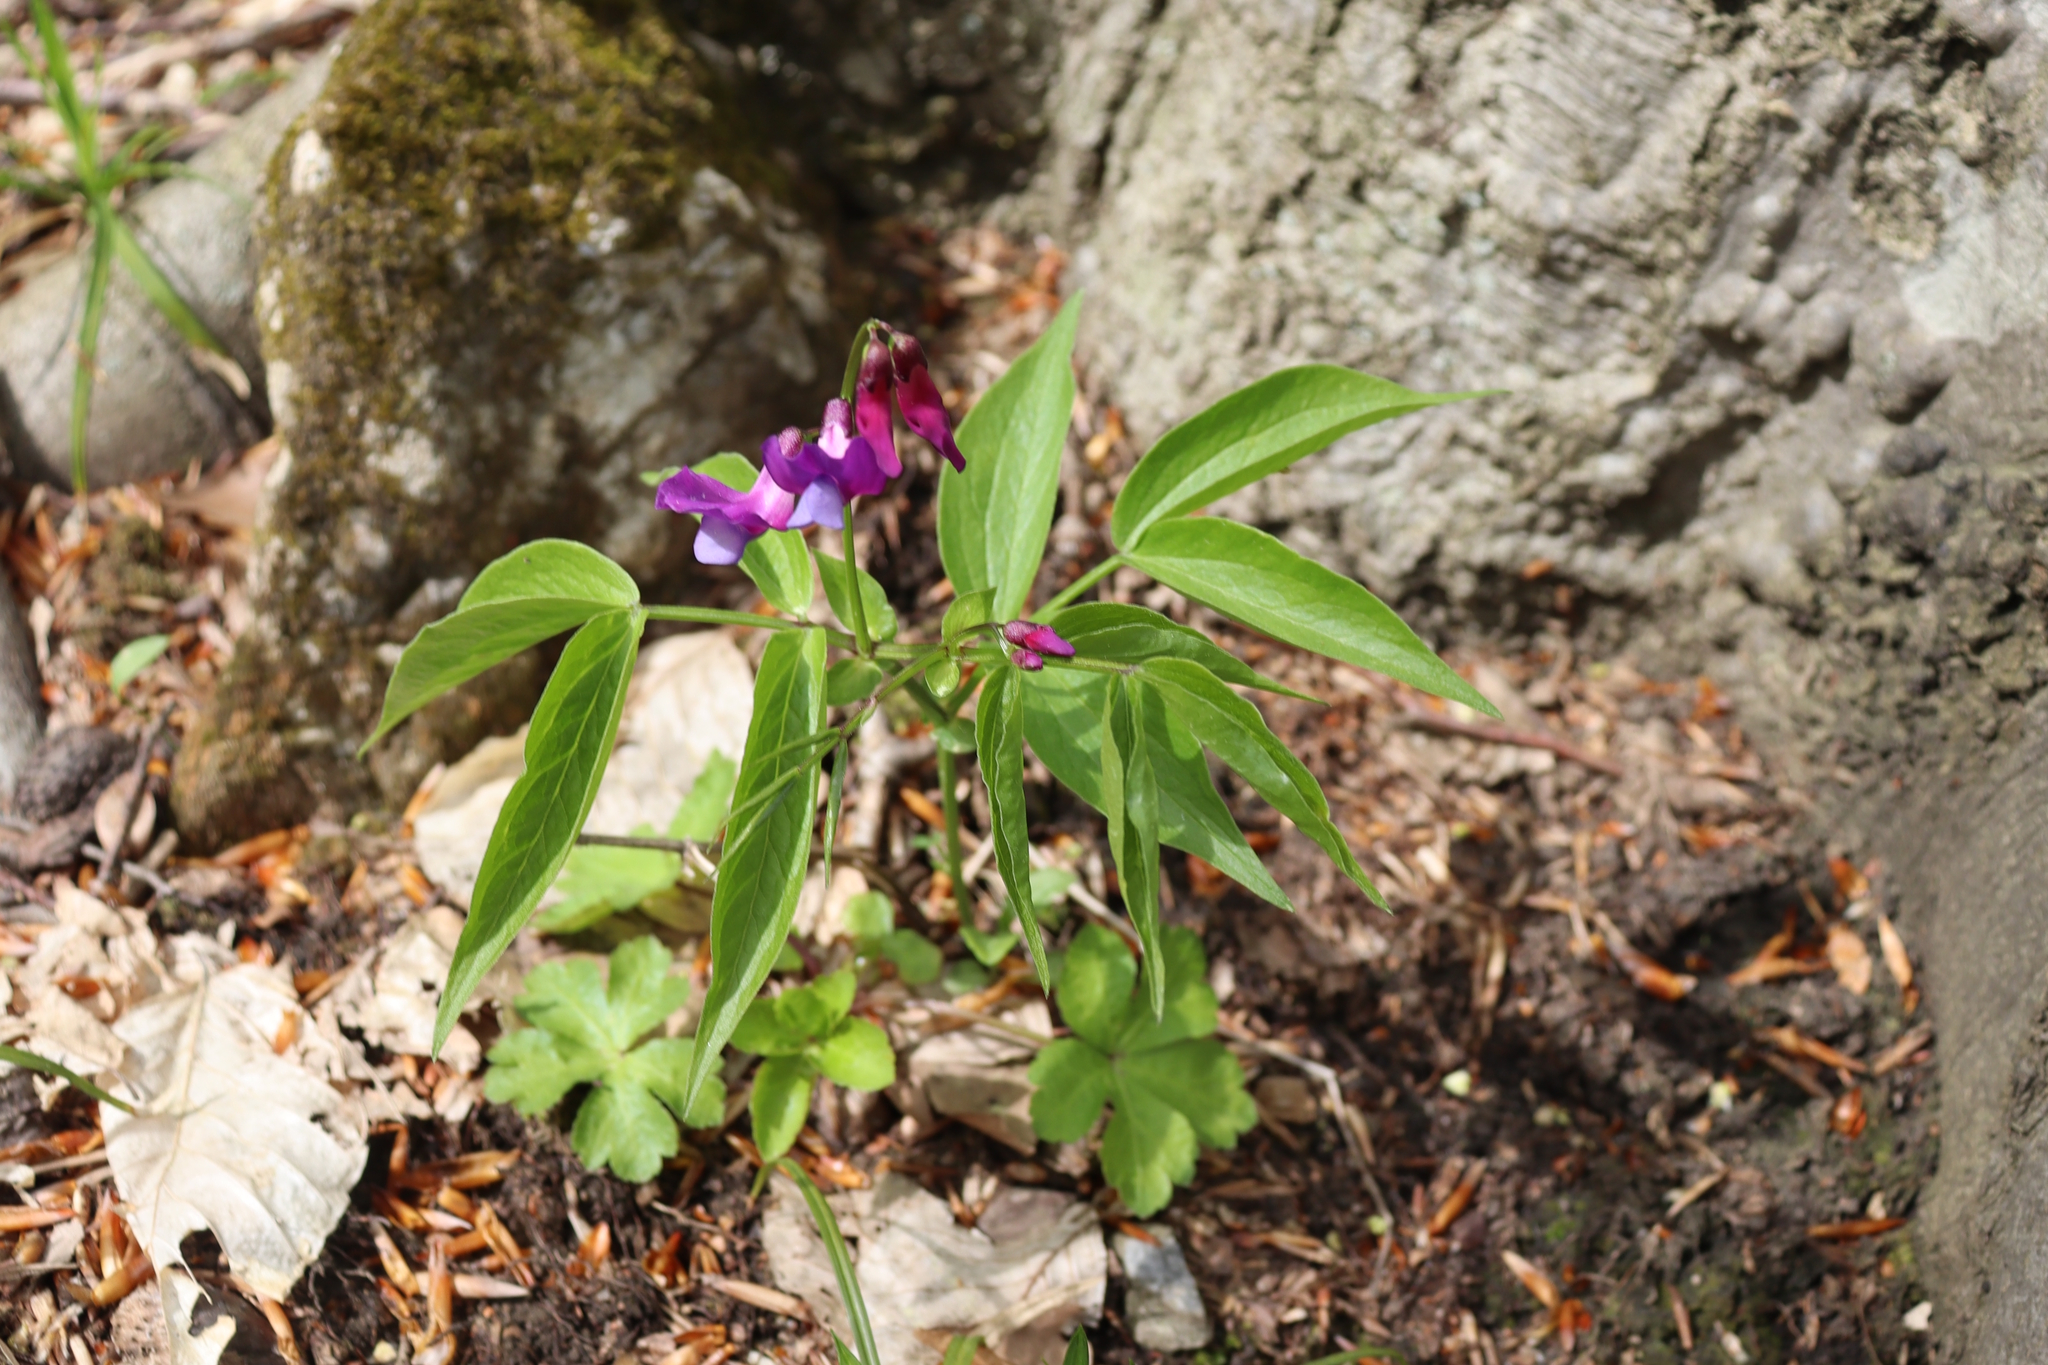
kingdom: Plantae
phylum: Tracheophyta
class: Magnoliopsida
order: Fabales
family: Fabaceae
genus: Lathyrus
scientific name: Lathyrus vernus
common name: Spring pea
